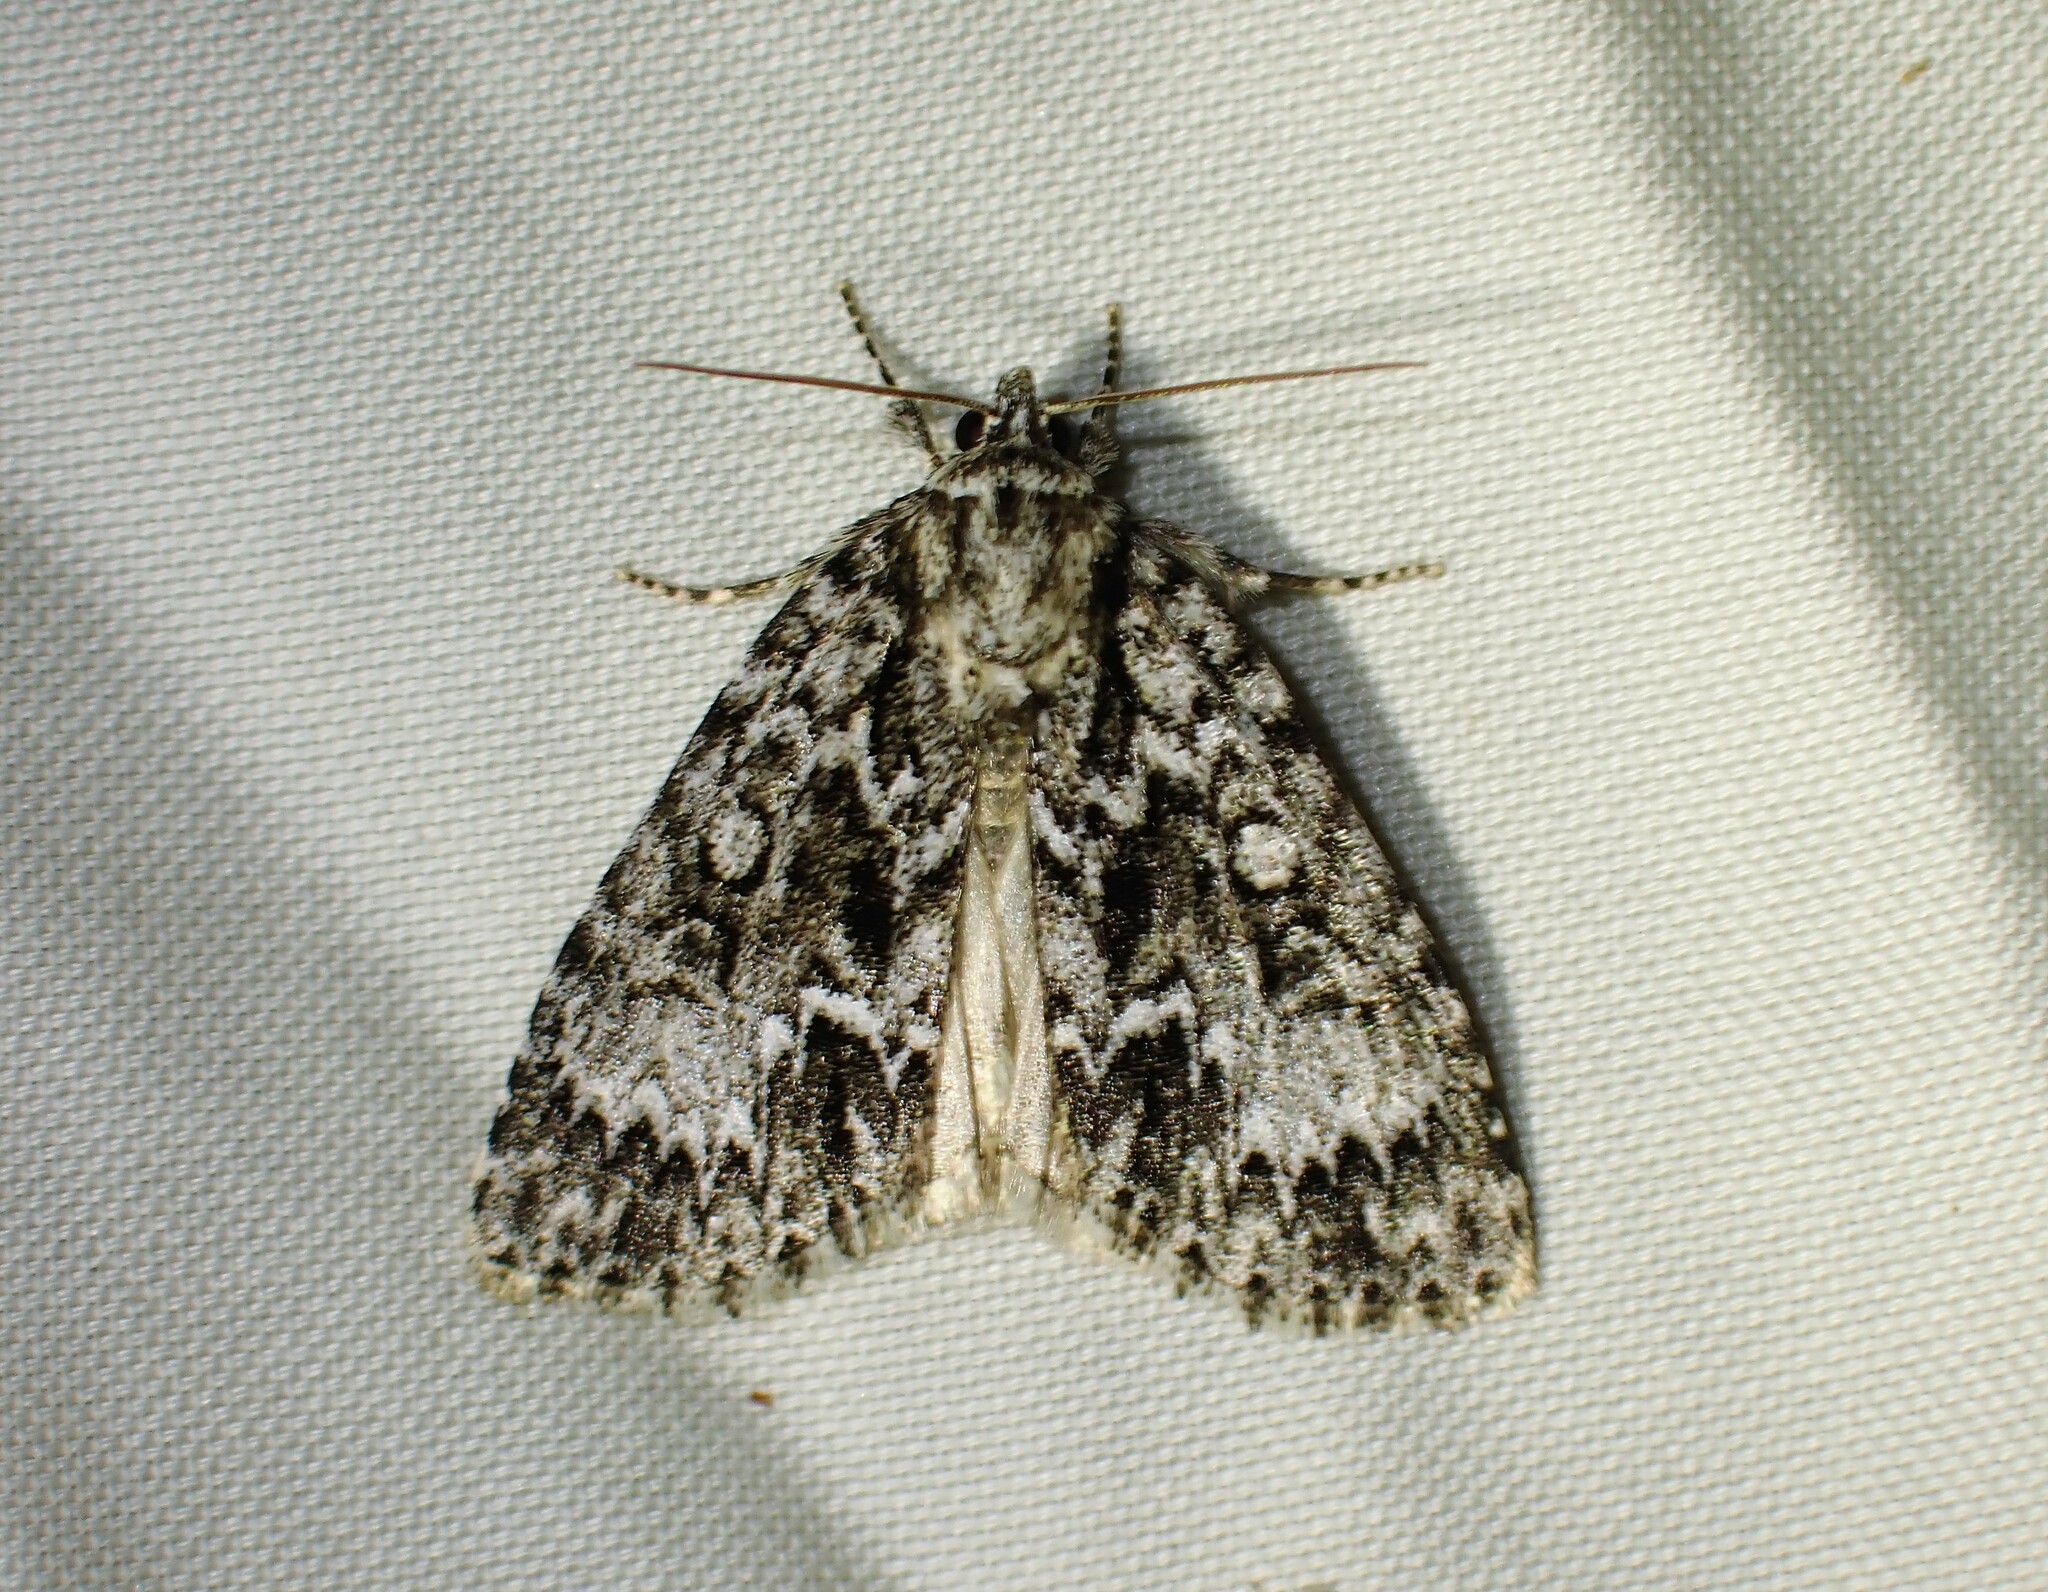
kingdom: Animalia
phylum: Arthropoda
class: Insecta
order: Lepidoptera
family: Noctuidae
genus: Acronicta
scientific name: Acronicta fragilis
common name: Fragile dagger
